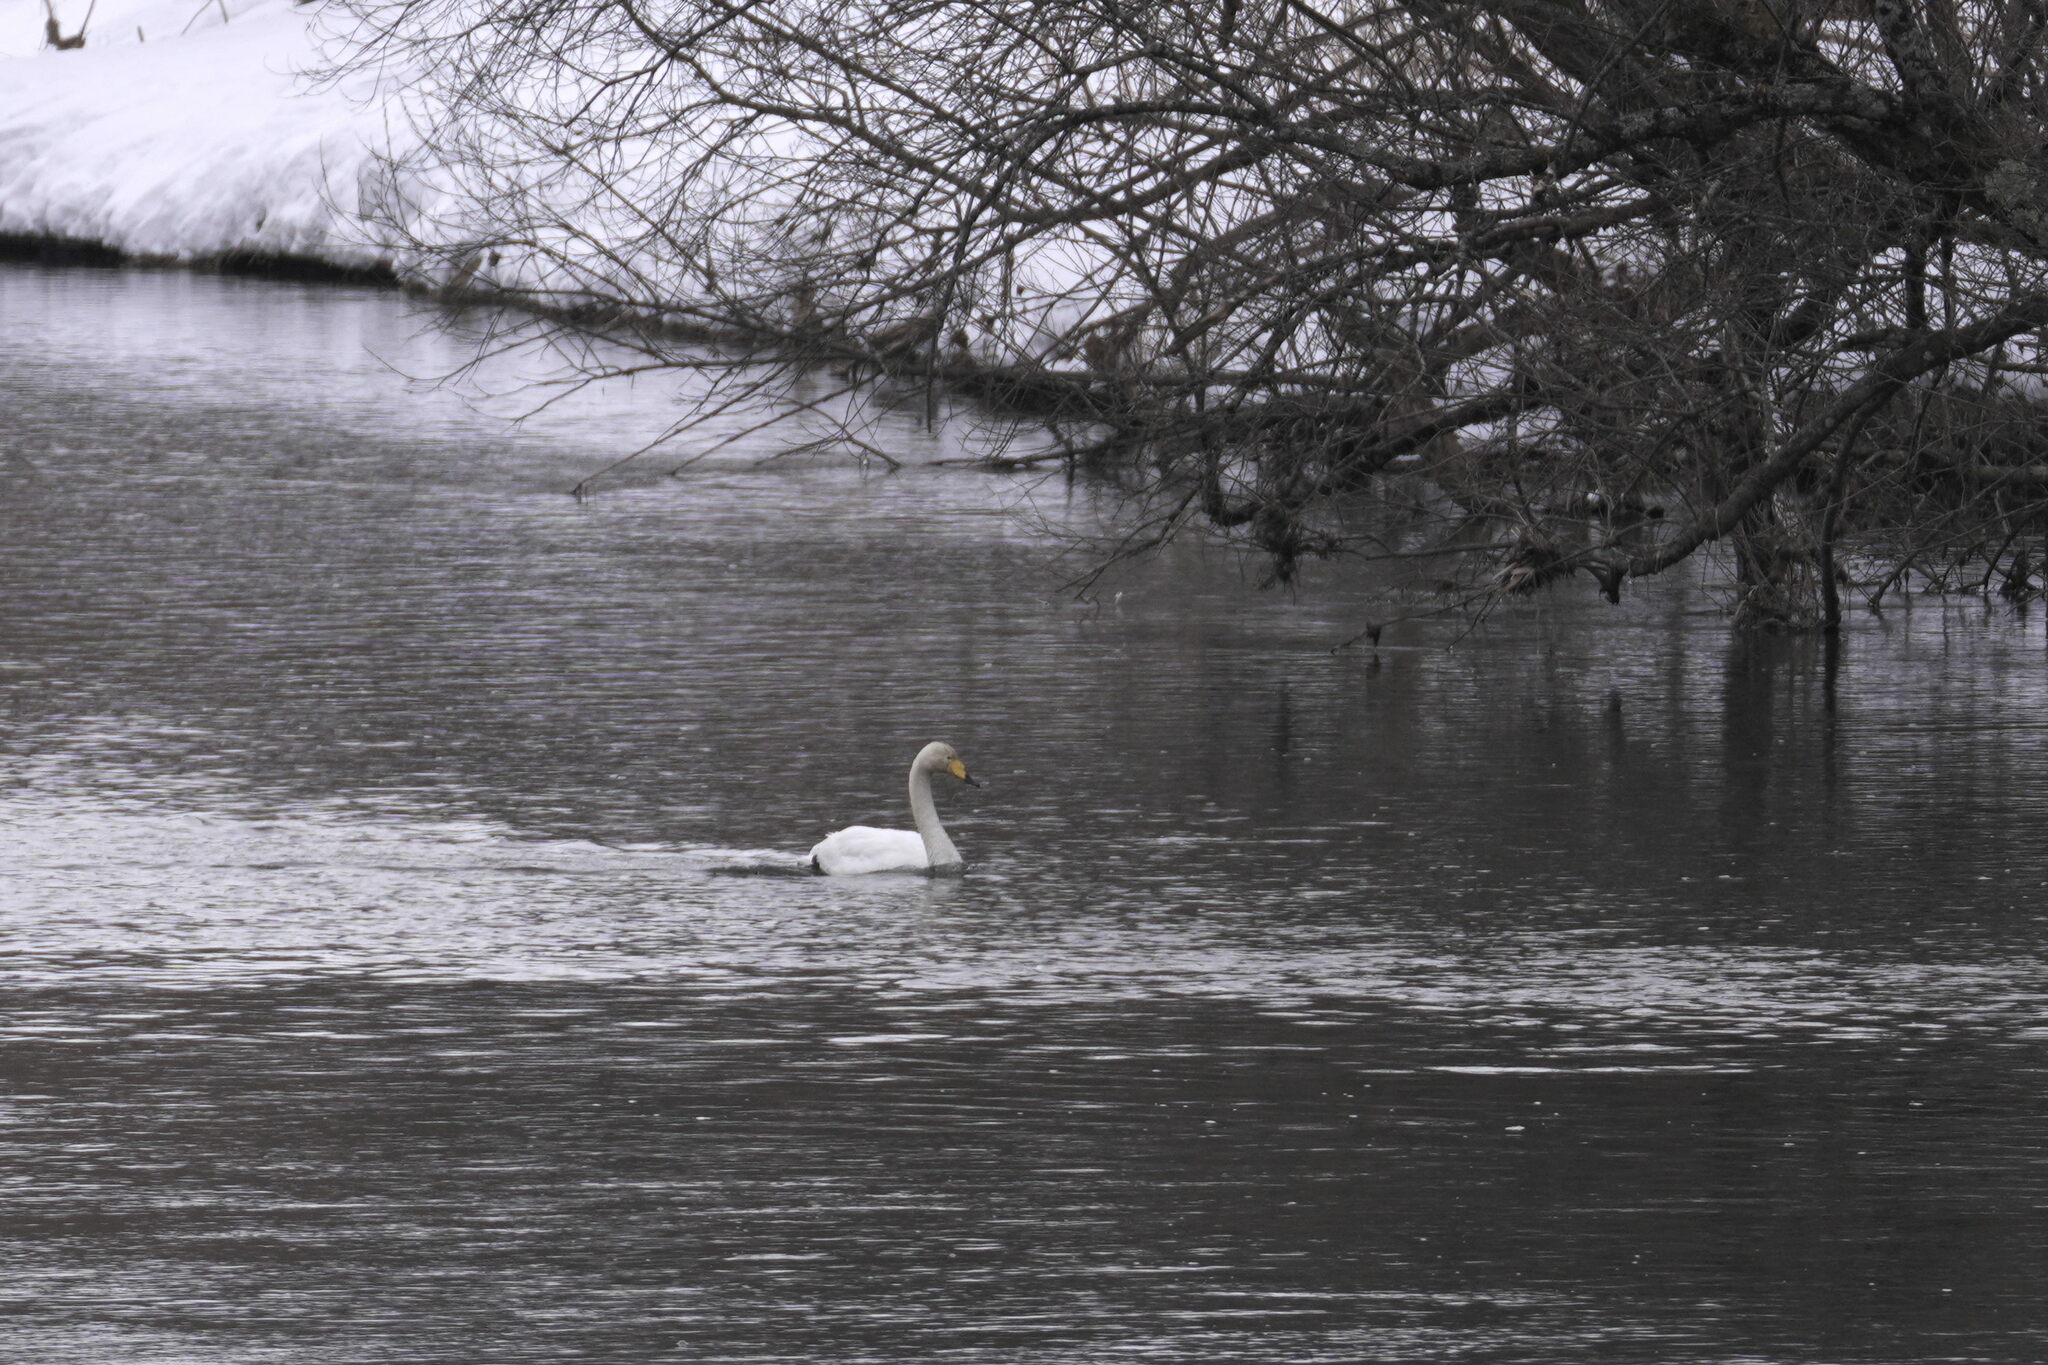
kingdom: Animalia
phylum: Chordata
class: Aves
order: Anseriformes
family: Anatidae
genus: Cygnus
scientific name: Cygnus cygnus
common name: Whooper swan
